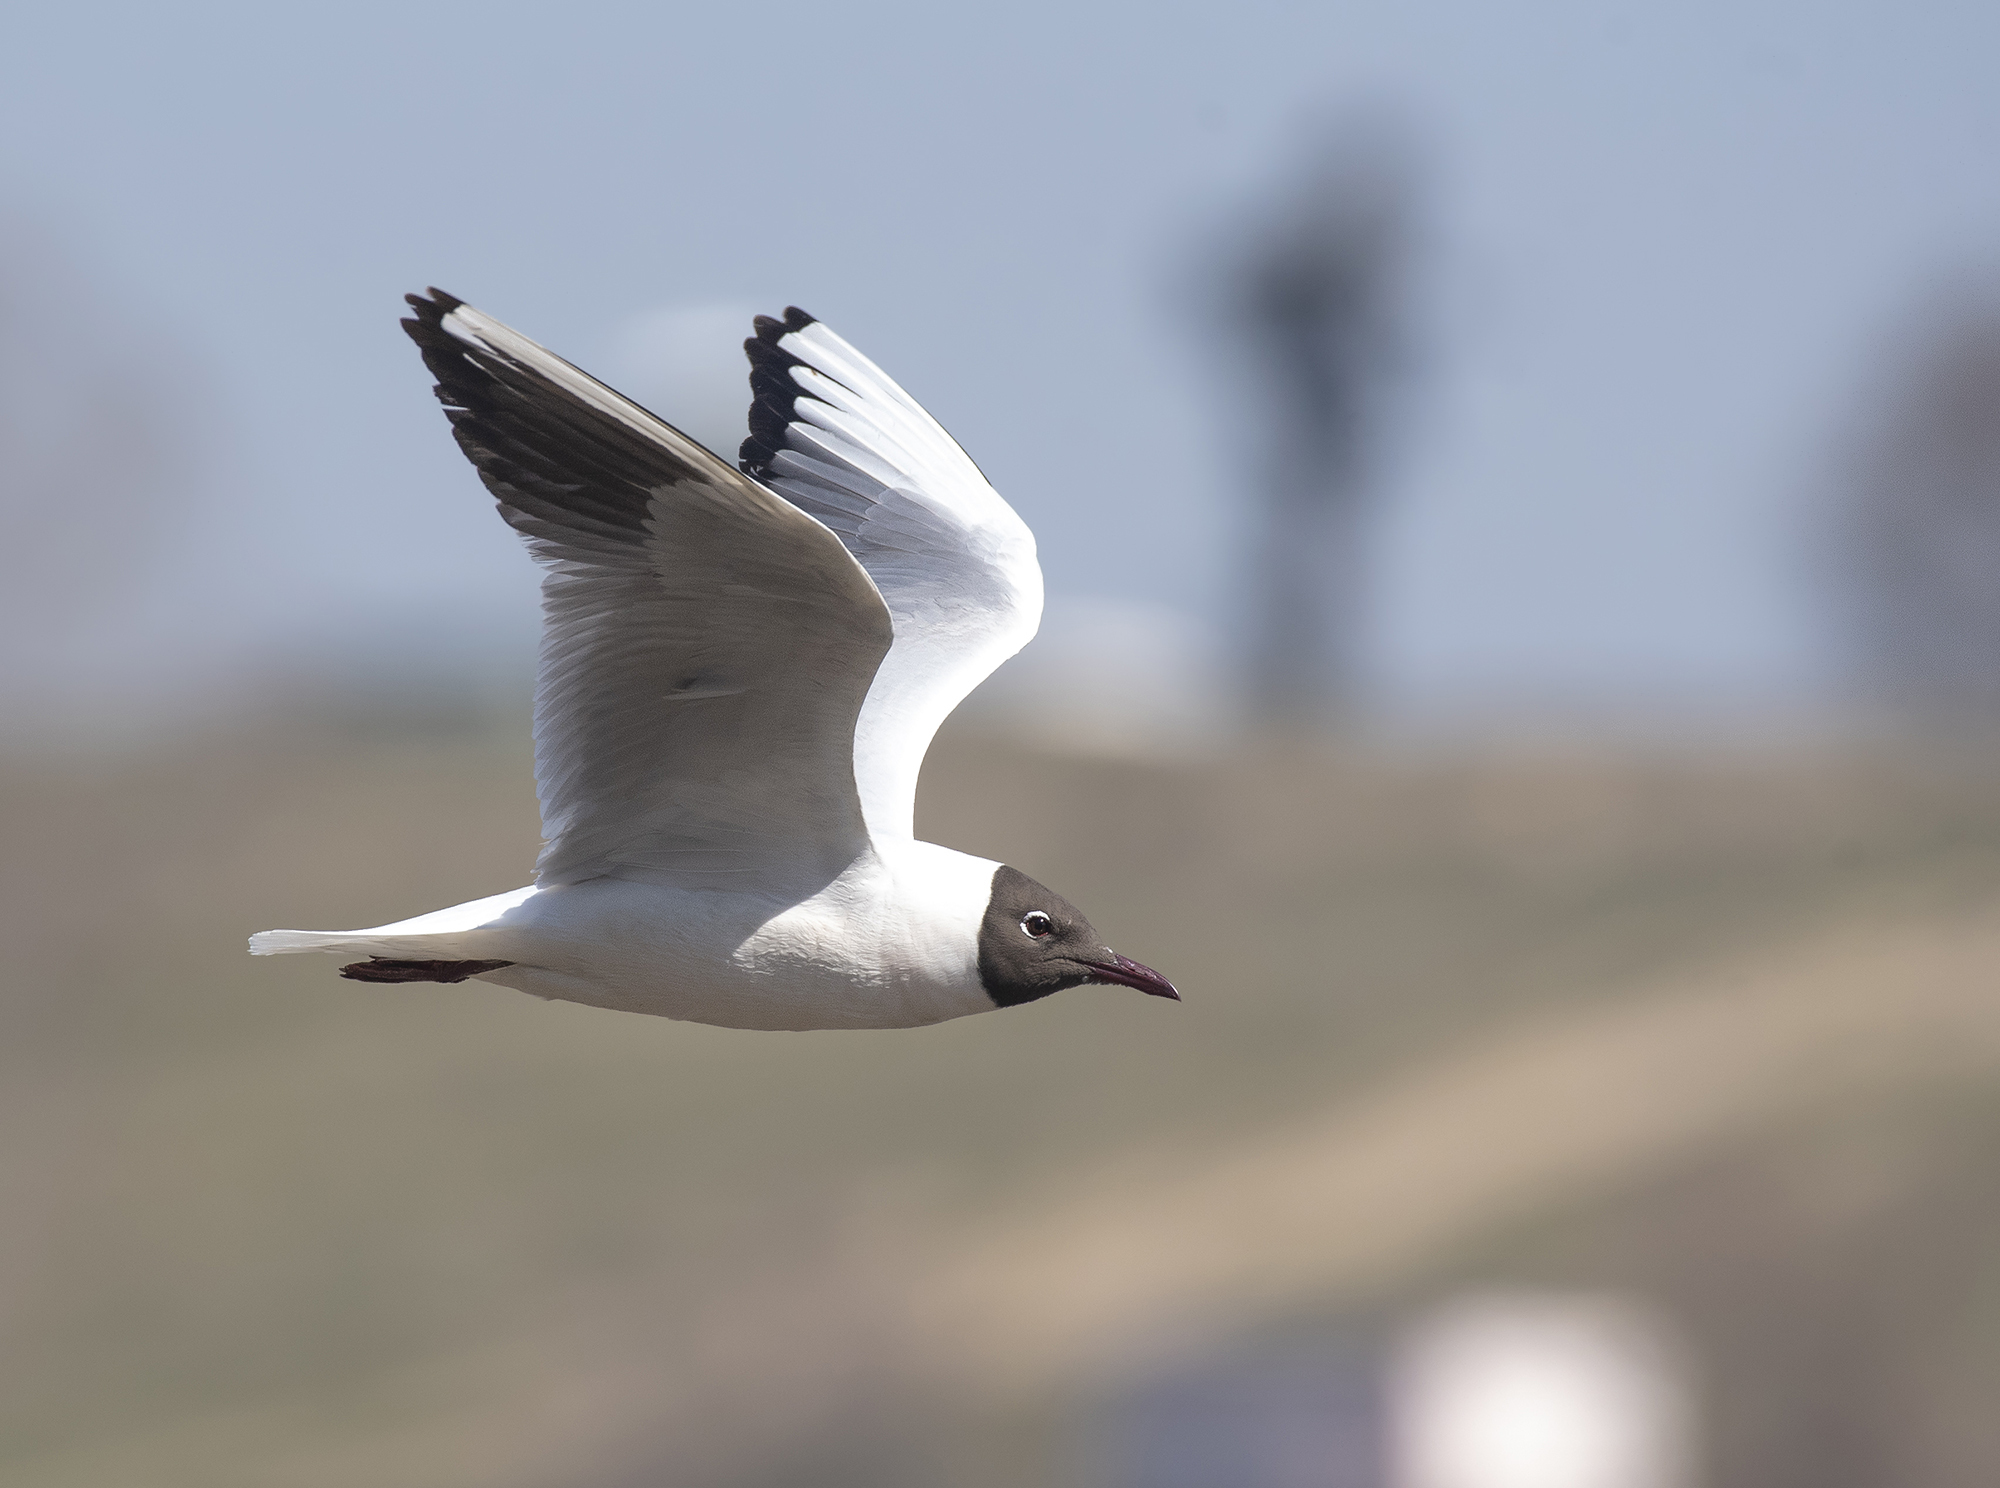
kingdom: Animalia
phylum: Chordata
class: Aves
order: Charadriiformes
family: Laridae
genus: Chroicocephalus
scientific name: Chroicocephalus ridibundus
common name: Black-headed gull
